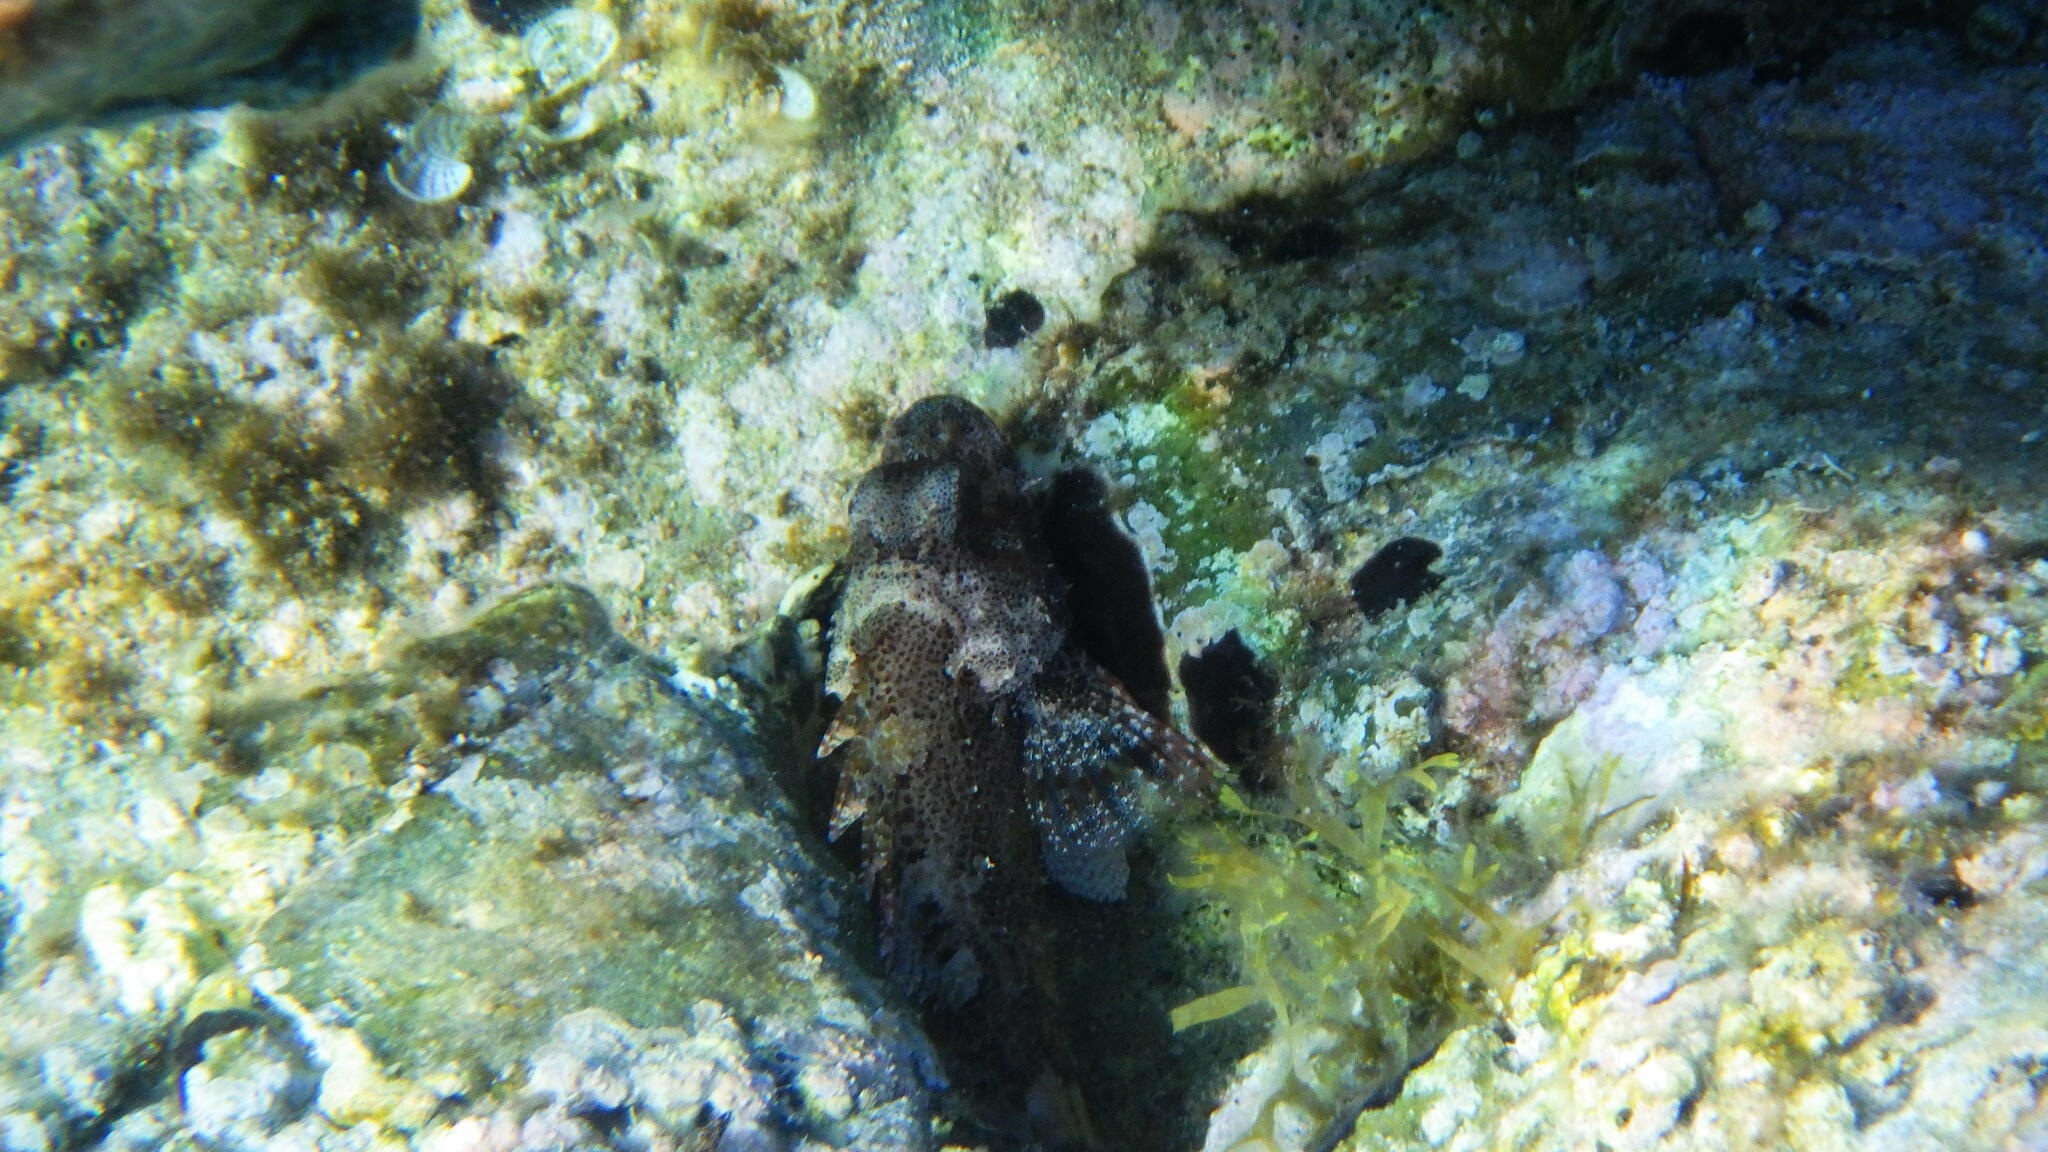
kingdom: Animalia
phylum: Chordata
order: Scorpaeniformes
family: Scorpaenidae
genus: Scorpaena
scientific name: Scorpaena maderensis
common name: Madeira rockfish
